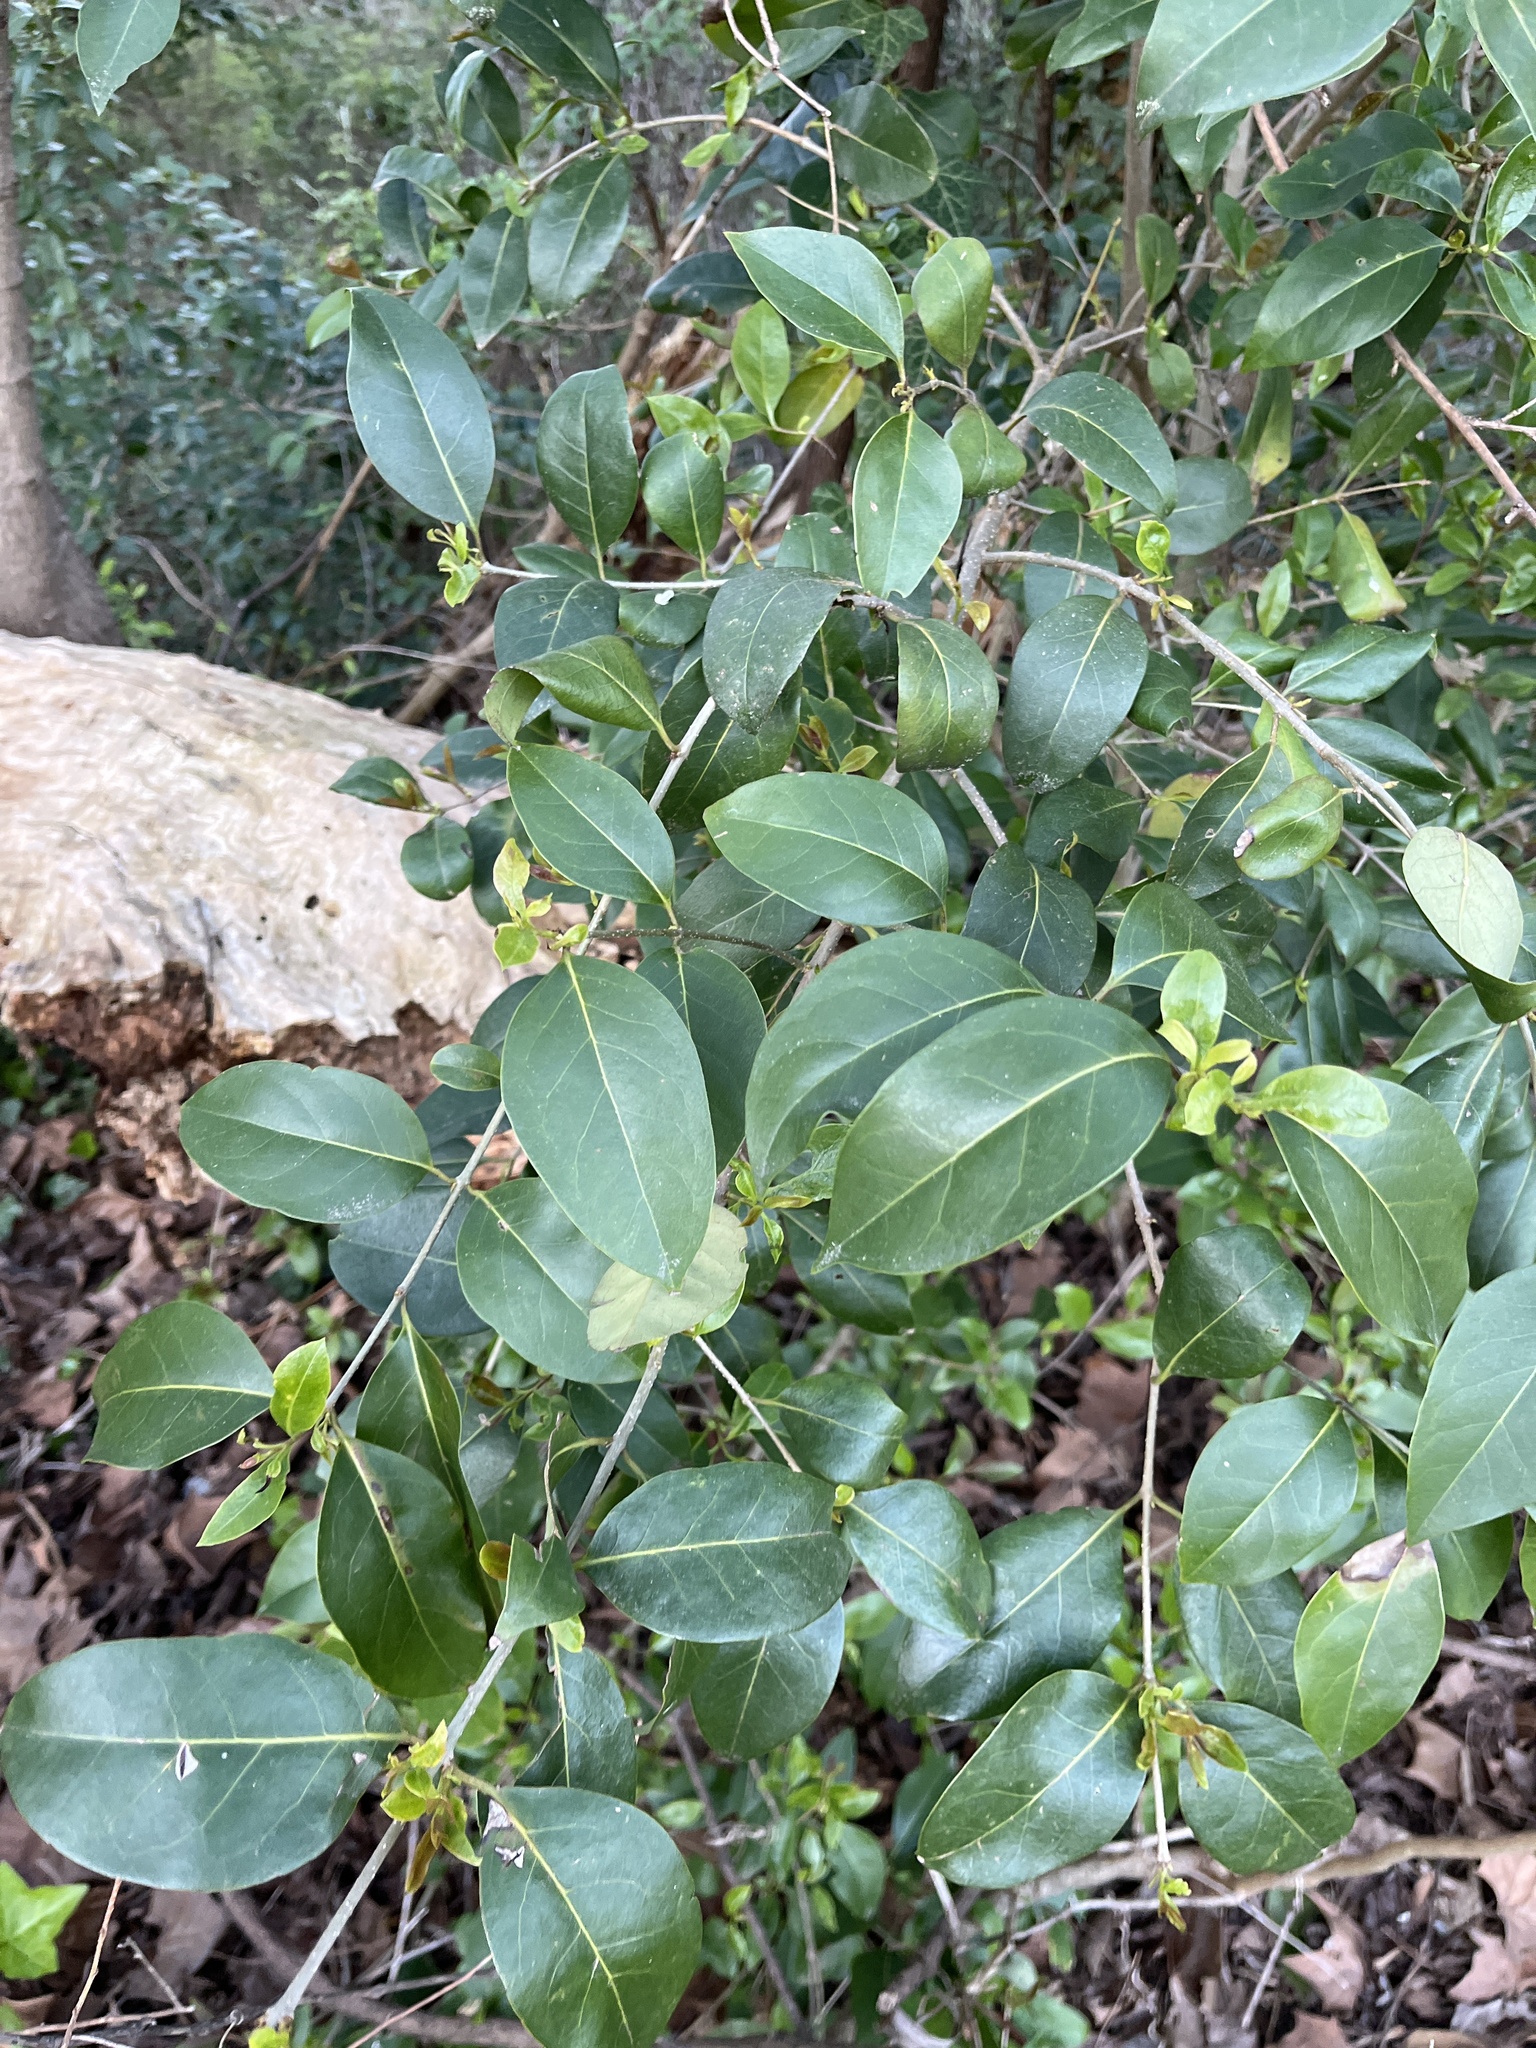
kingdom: Plantae
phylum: Tracheophyta
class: Magnoliopsida
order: Lamiales
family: Oleaceae
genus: Ligustrum
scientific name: Ligustrum sinense
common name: Chinese privet
